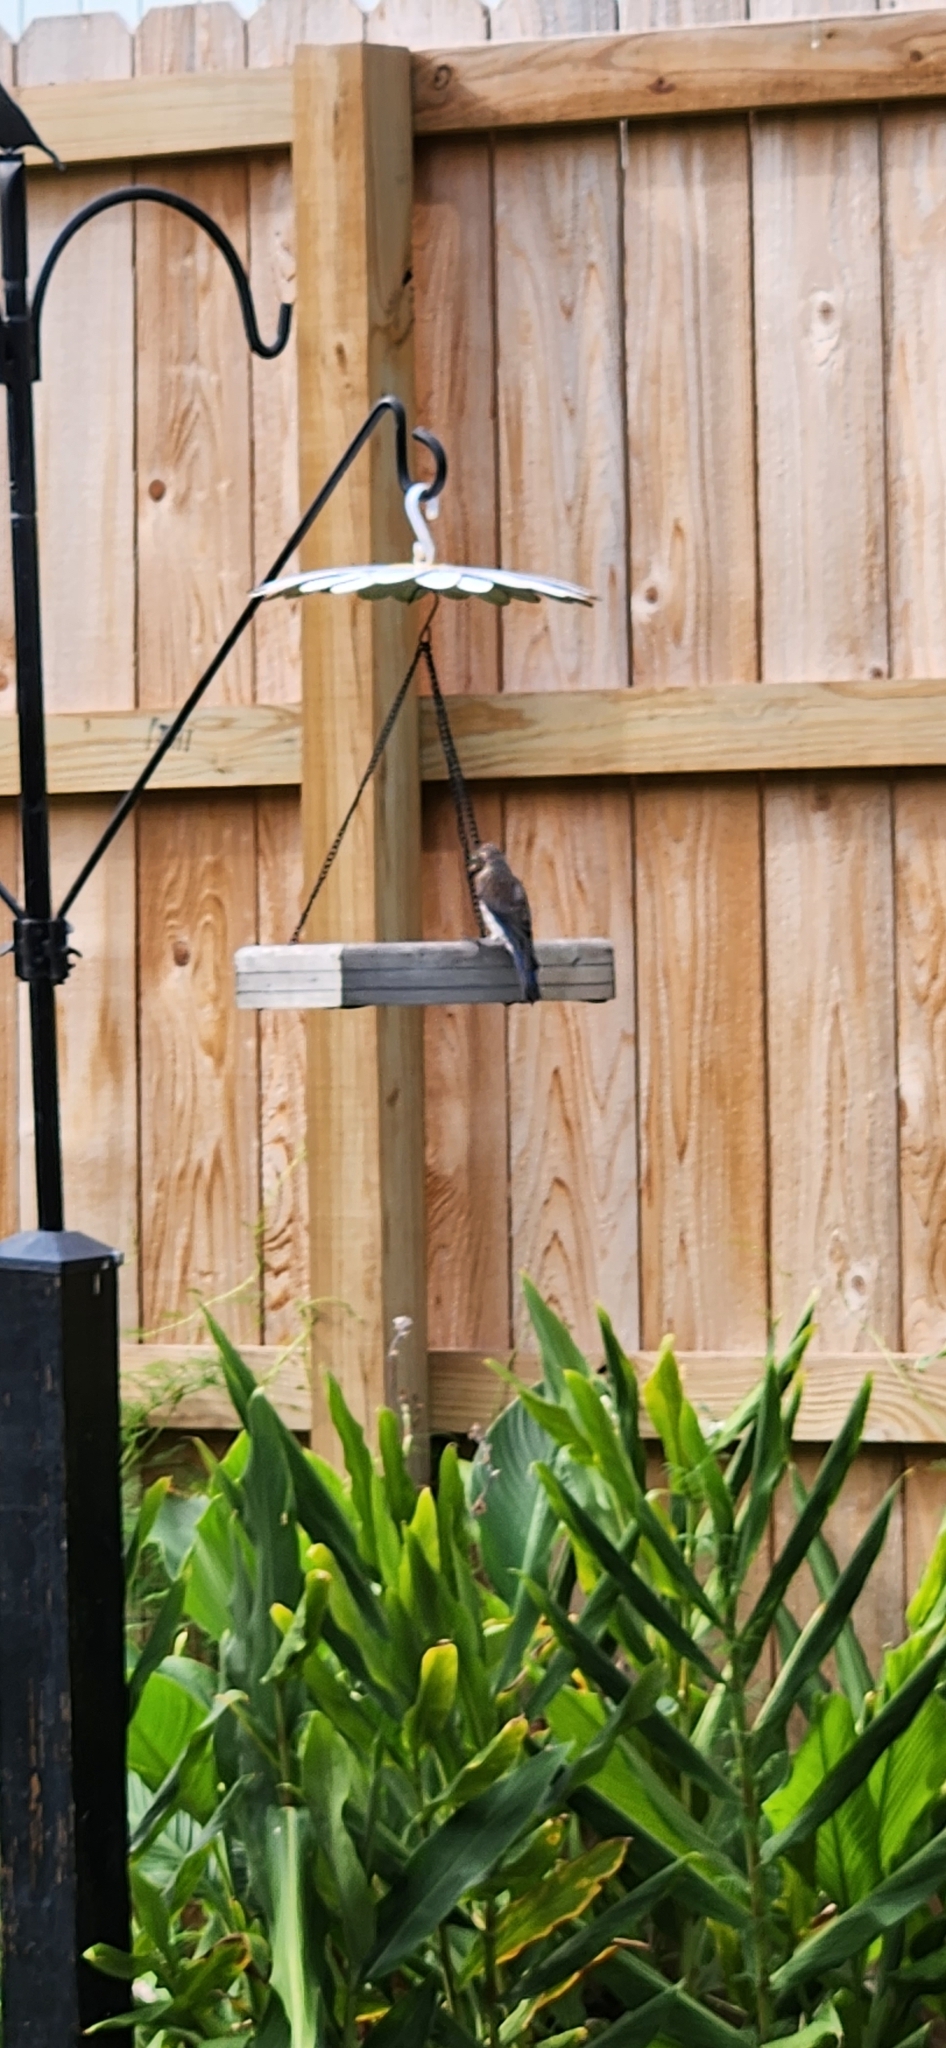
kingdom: Animalia
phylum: Chordata
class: Aves
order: Passeriformes
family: Turdidae
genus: Sialia
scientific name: Sialia sialis
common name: Eastern bluebird
